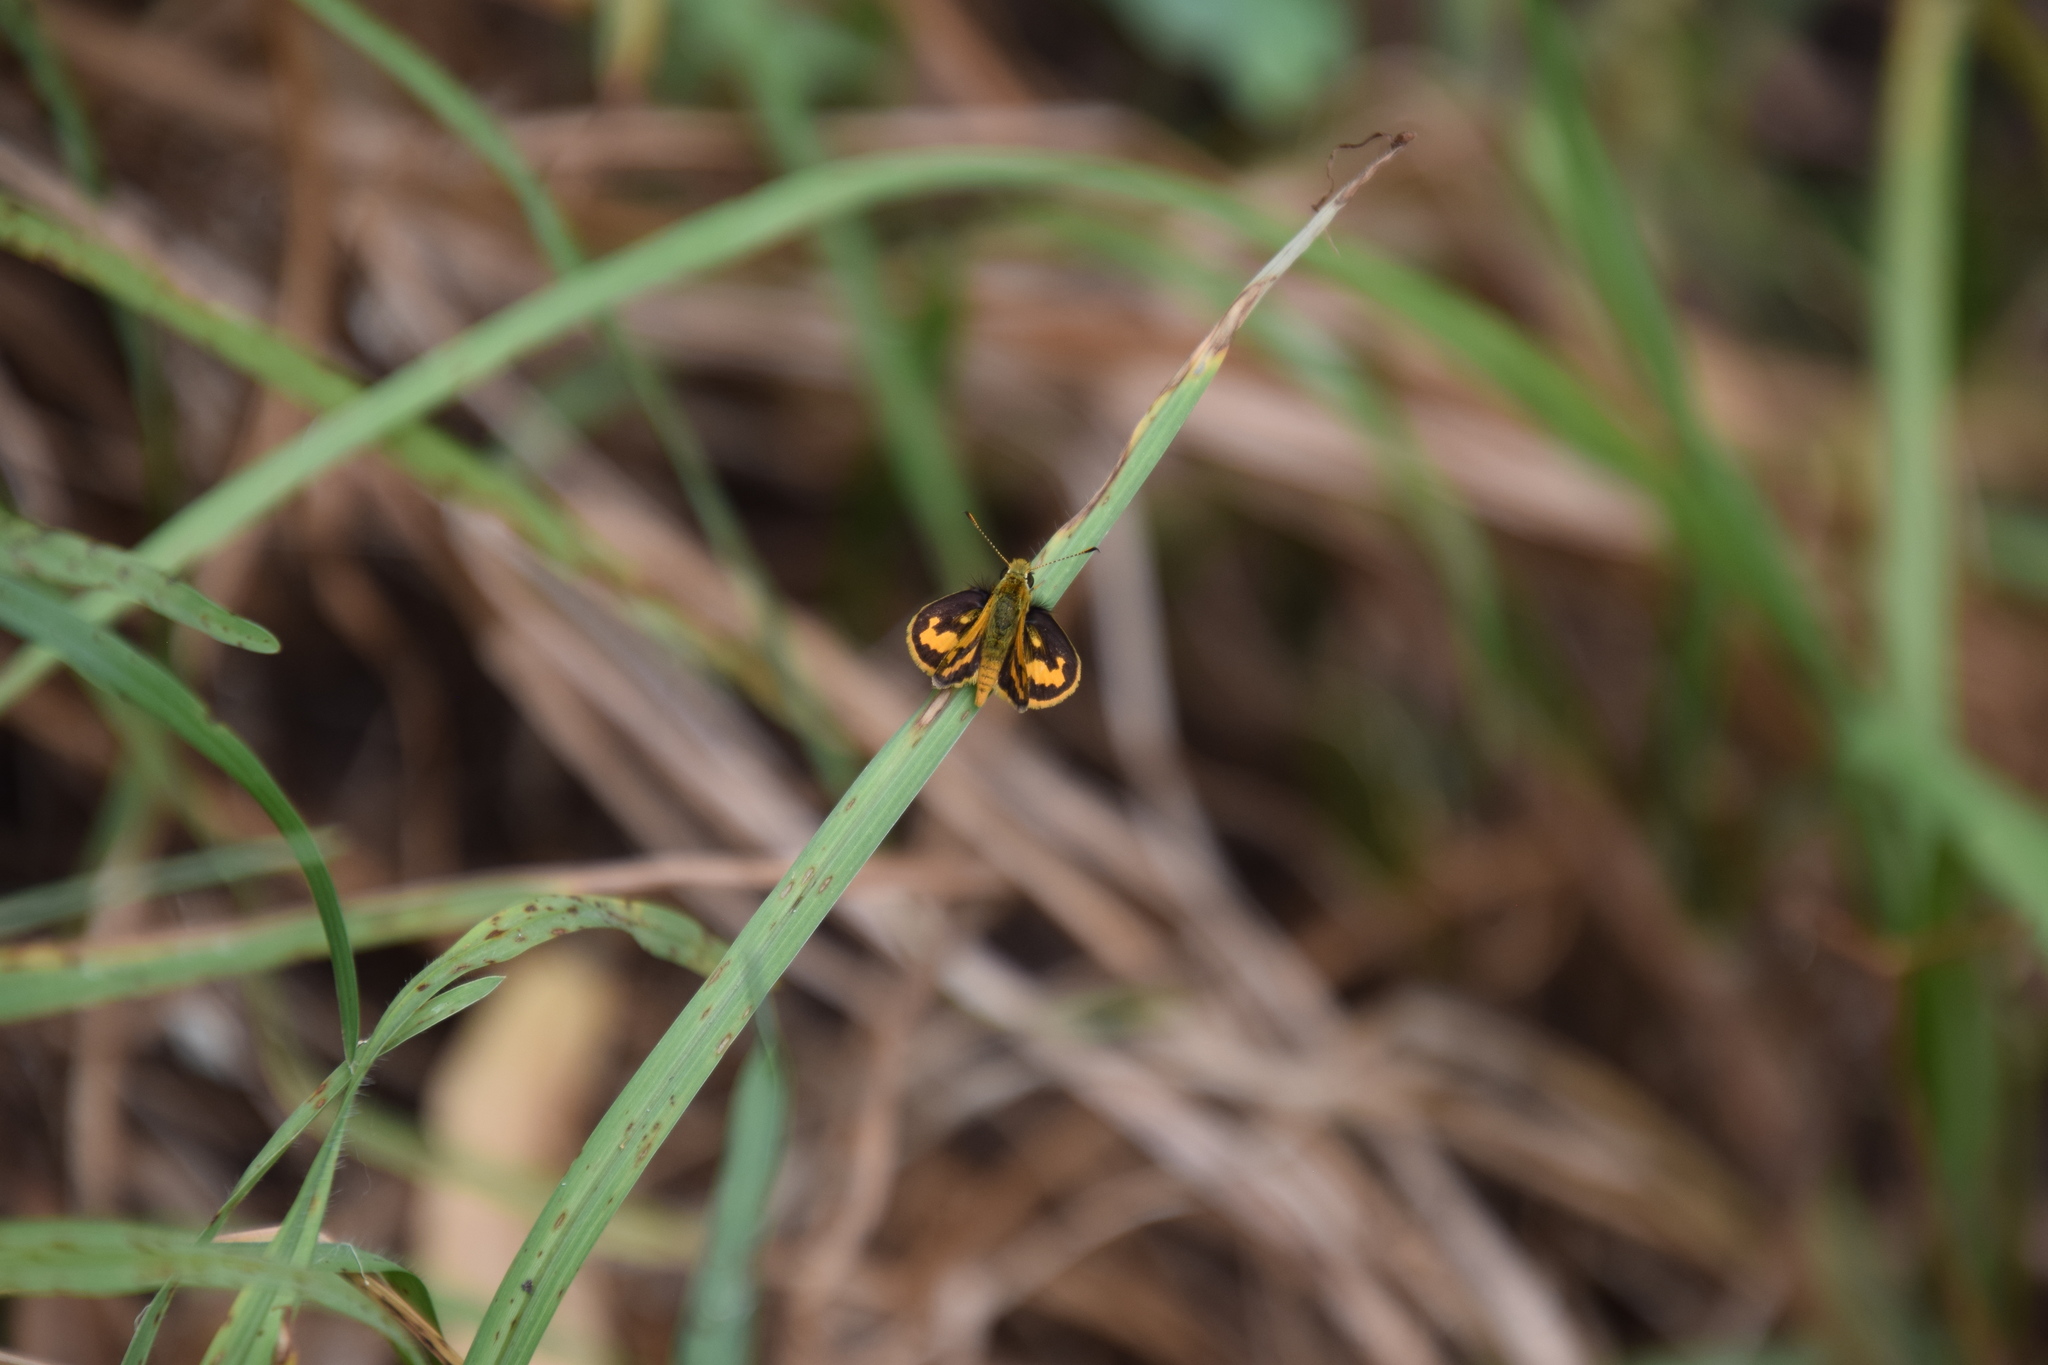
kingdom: Animalia
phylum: Arthropoda
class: Insecta
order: Lepidoptera
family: Hesperiidae
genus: Ocybadistes
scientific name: Ocybadistes walkeri
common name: Yellow-banded dart
